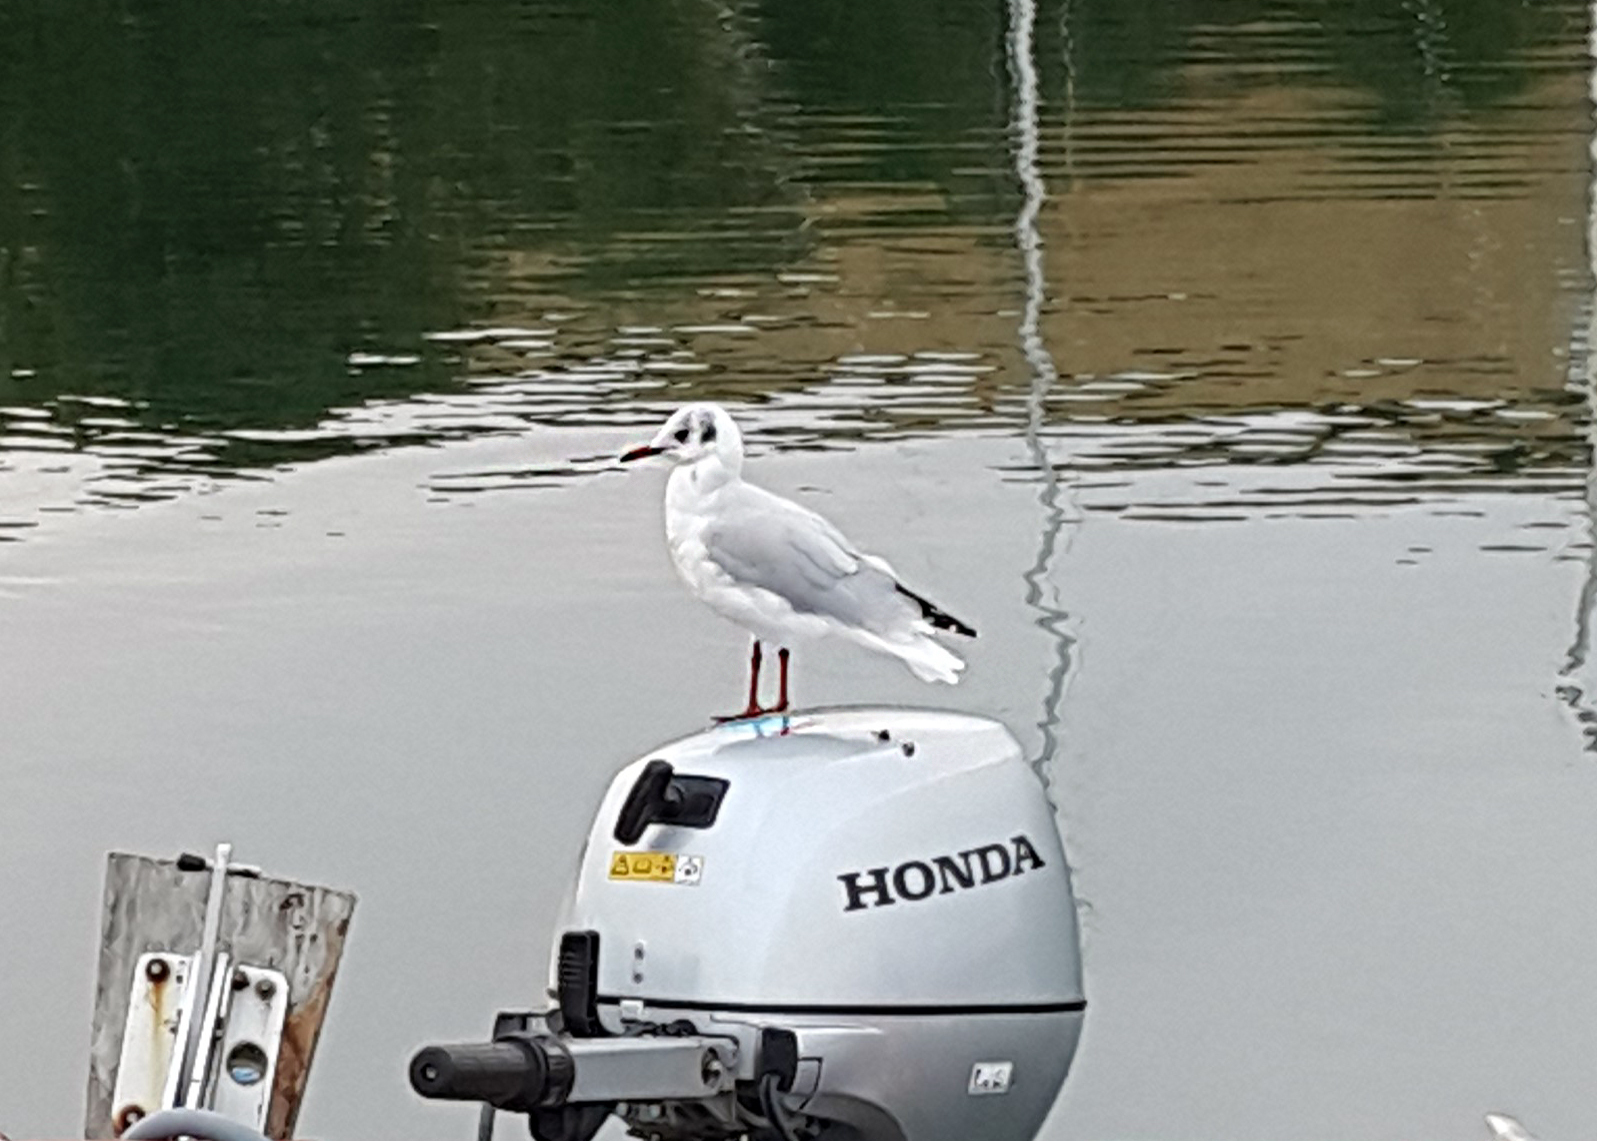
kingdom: Animalia
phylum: Chordata
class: Aves
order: Charadriiformes
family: Laridae
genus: Chroicocephalus
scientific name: Chroicocephalus ridibundus
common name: Black-headed gull
